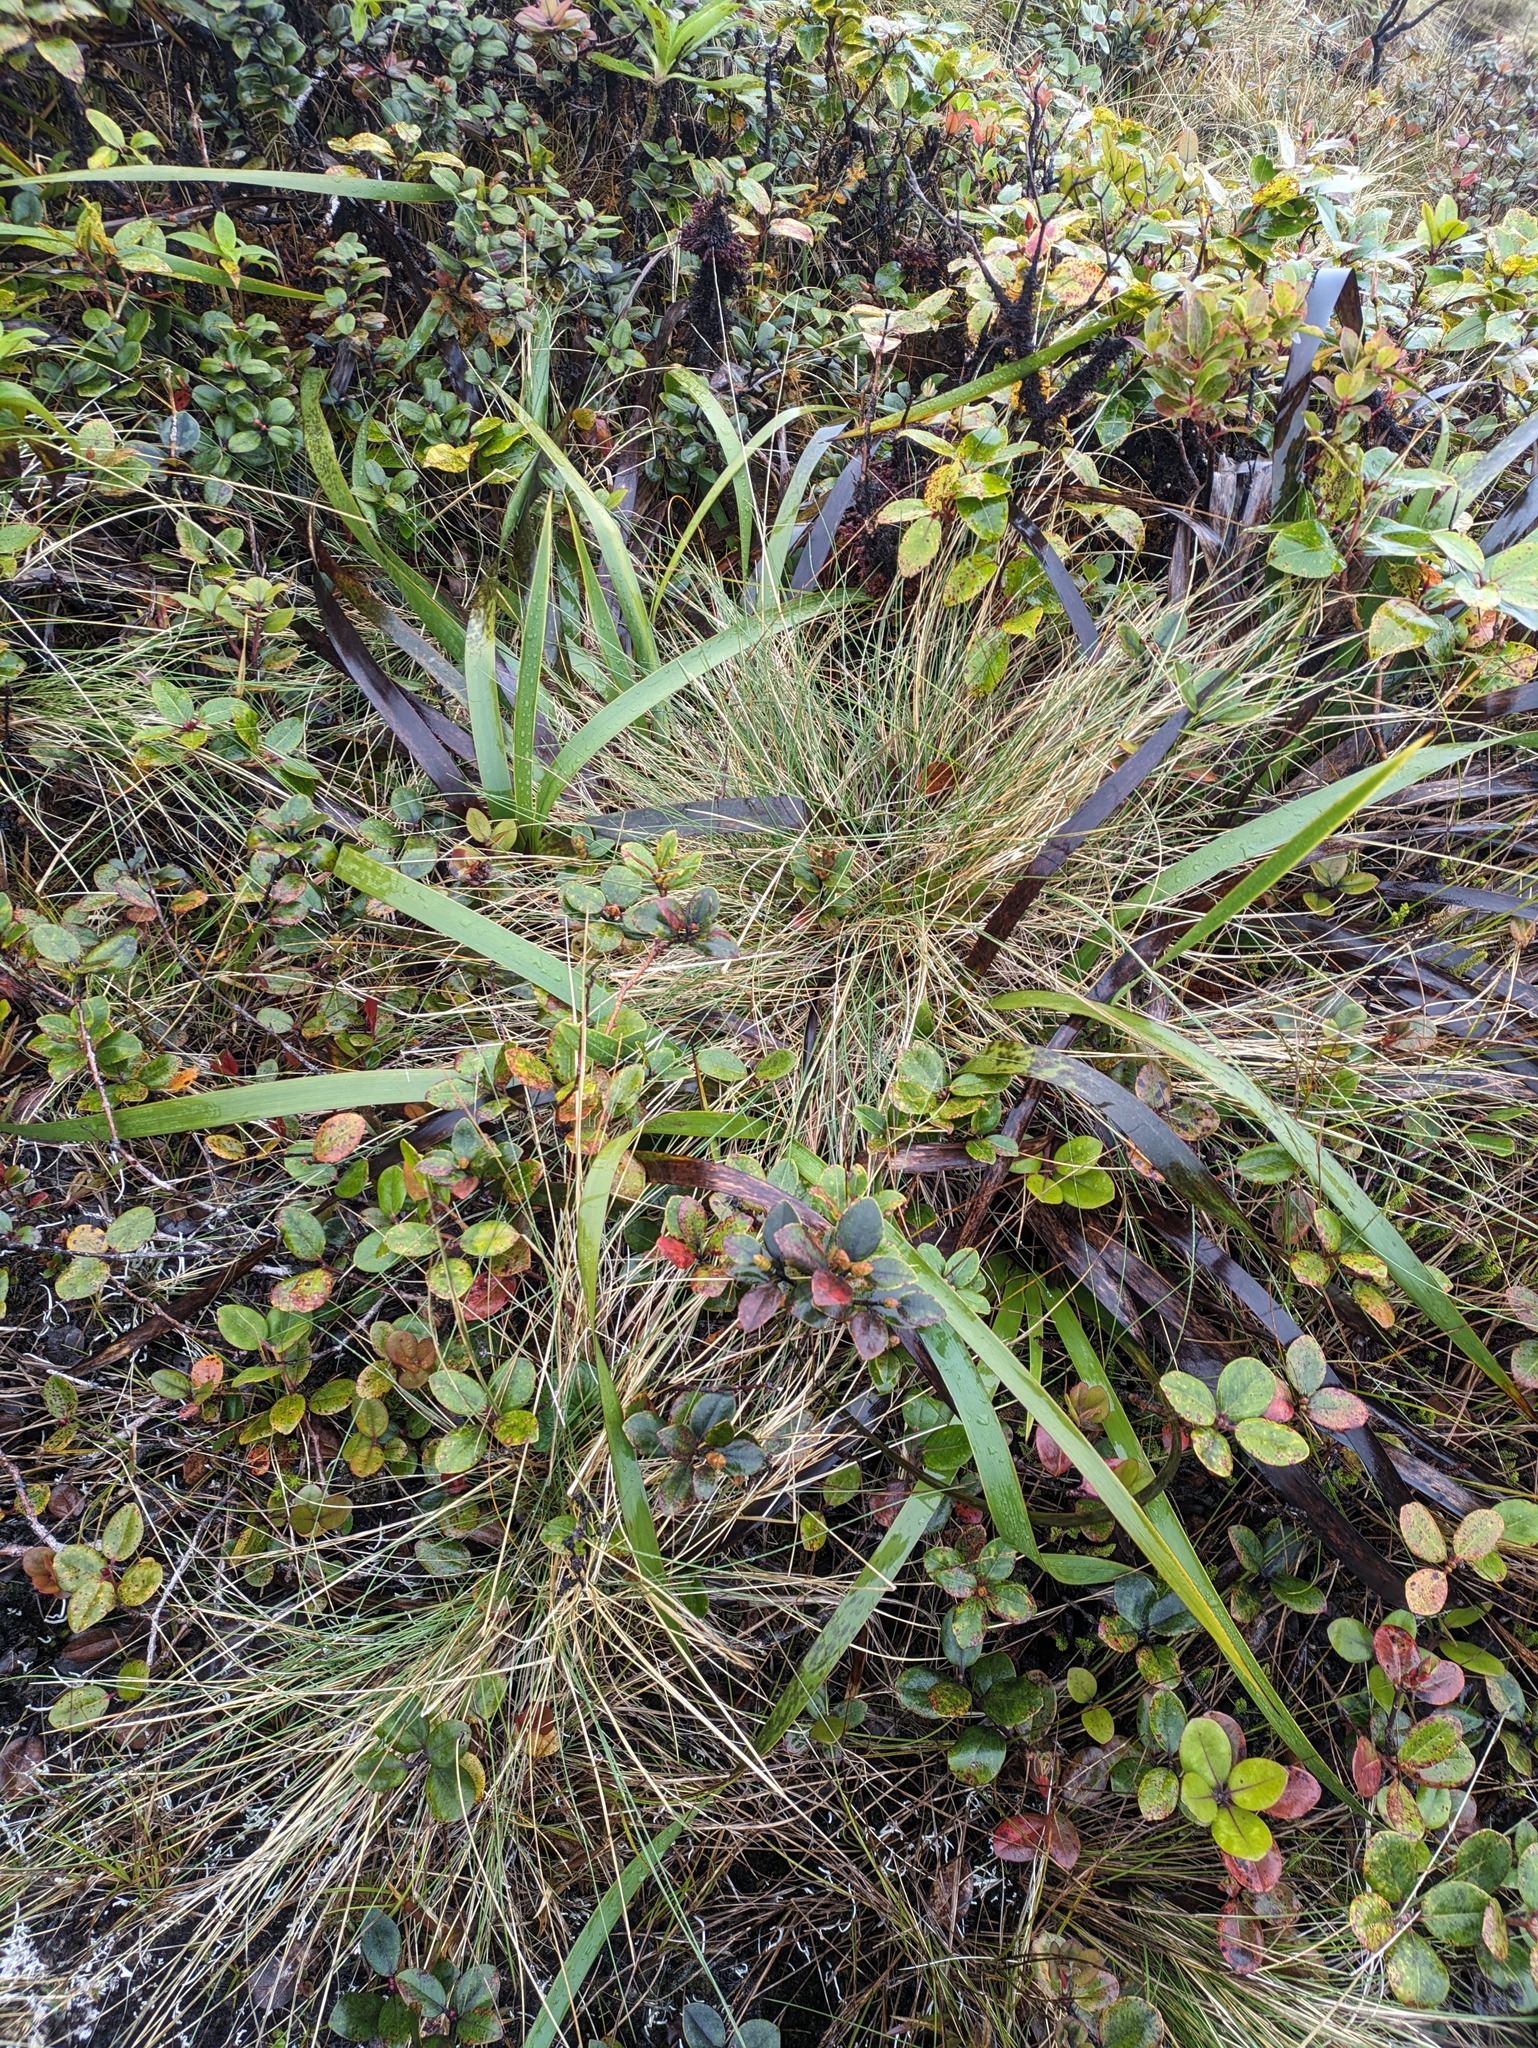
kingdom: Plantae
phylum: Tracheophyta
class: Magnoliopsida
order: Myrtales
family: Myrtaceae
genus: Metrosideros
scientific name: Metrosideros polymorpha
